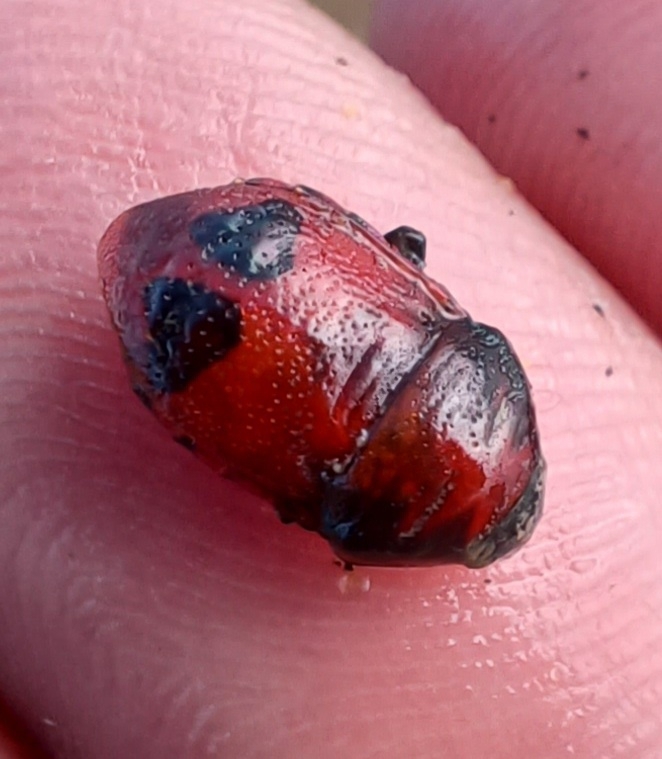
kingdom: Animalia
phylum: Arthropoda
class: Insecta
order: Hemiptera
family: Scutelleridae
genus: Choerocoris
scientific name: Choerocoris paganus
